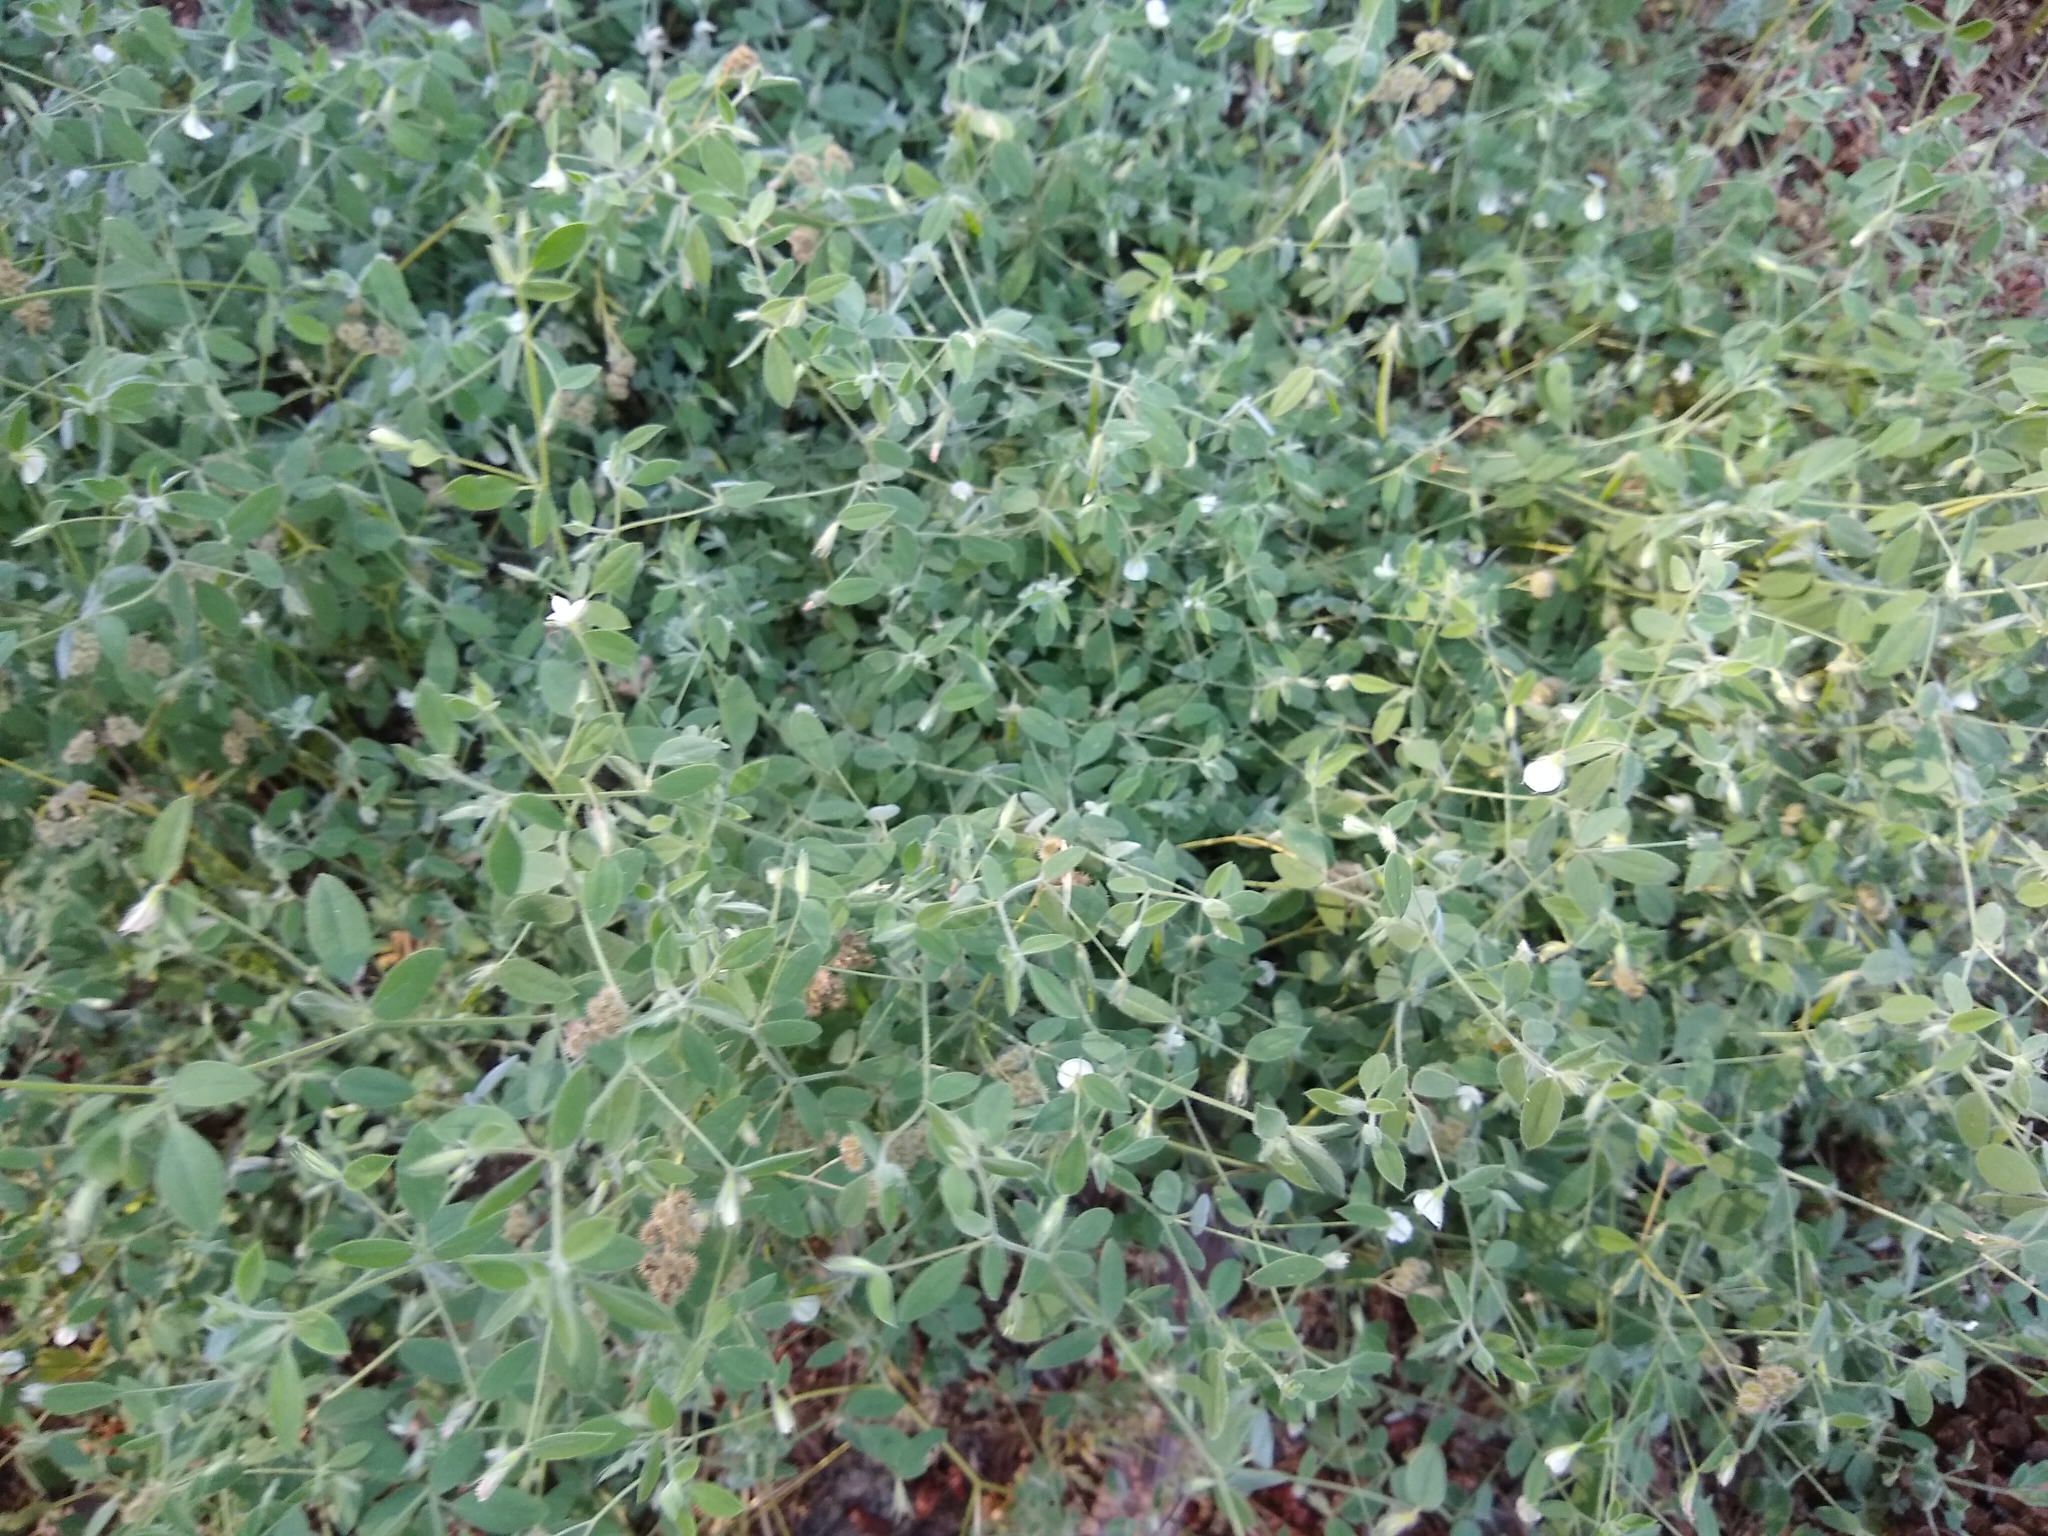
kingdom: Plantae
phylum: Tracheophyta
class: Magnoliopsida
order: Fabales
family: Fabaceae
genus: Acmispon
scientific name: Acmispon americanus
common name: American bird's-foot trefoil
